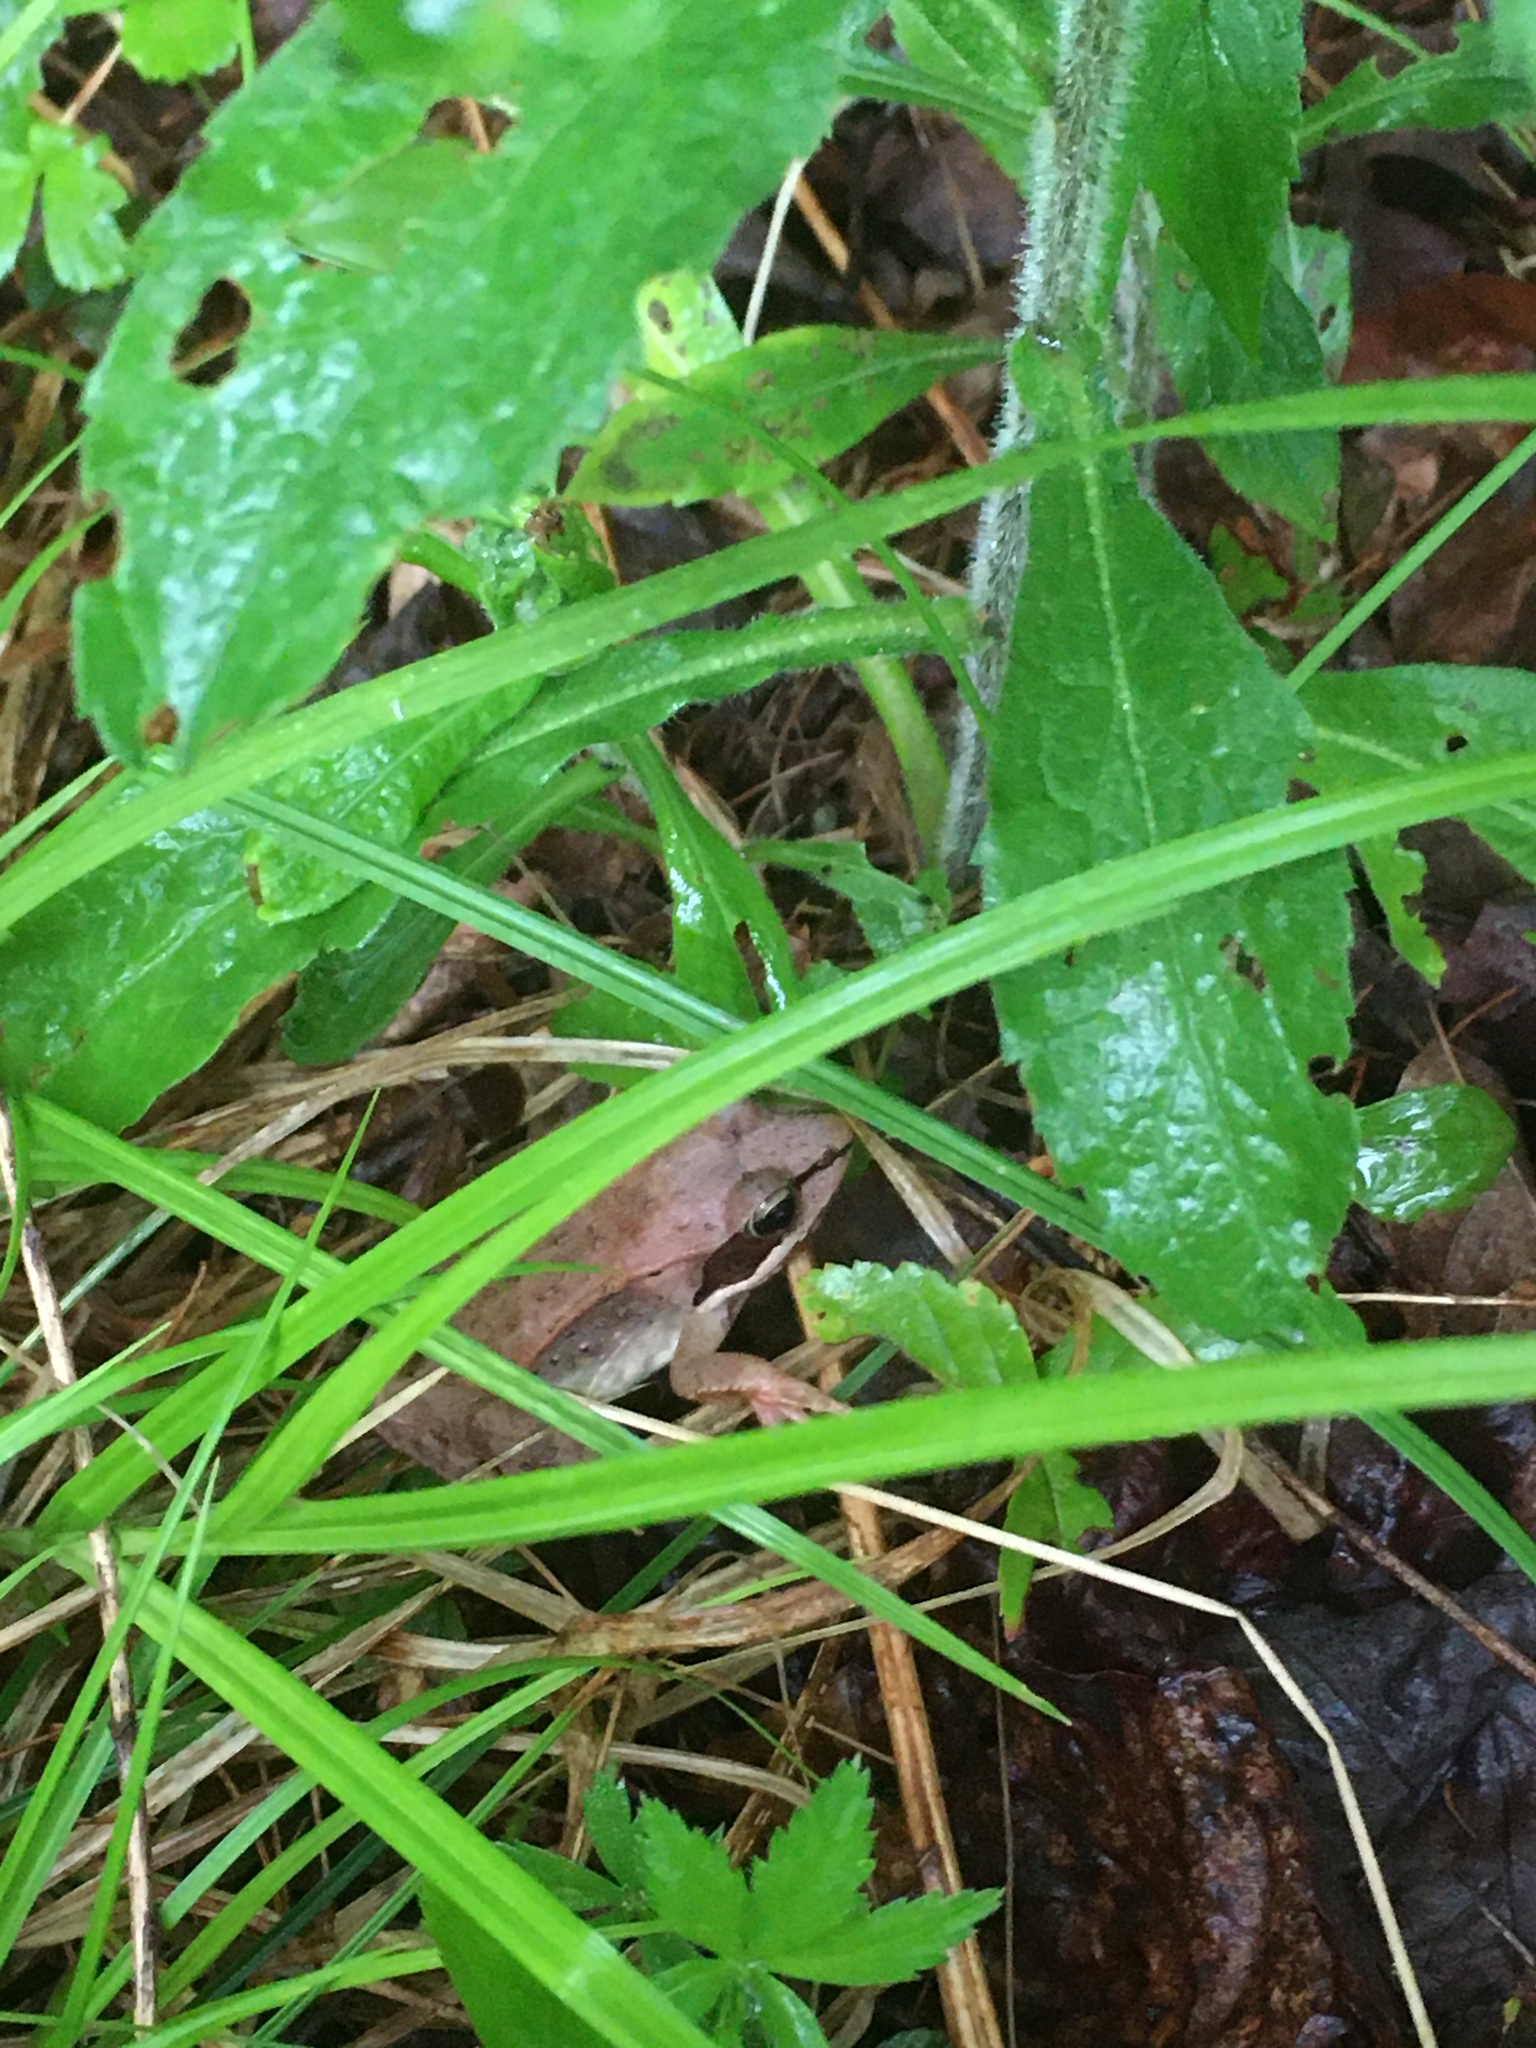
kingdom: Animalia
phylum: Chordata
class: Amphibia
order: Anura
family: Ranidae
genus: Lithobates
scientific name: Lithobates sylvaticus
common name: Wood frog
